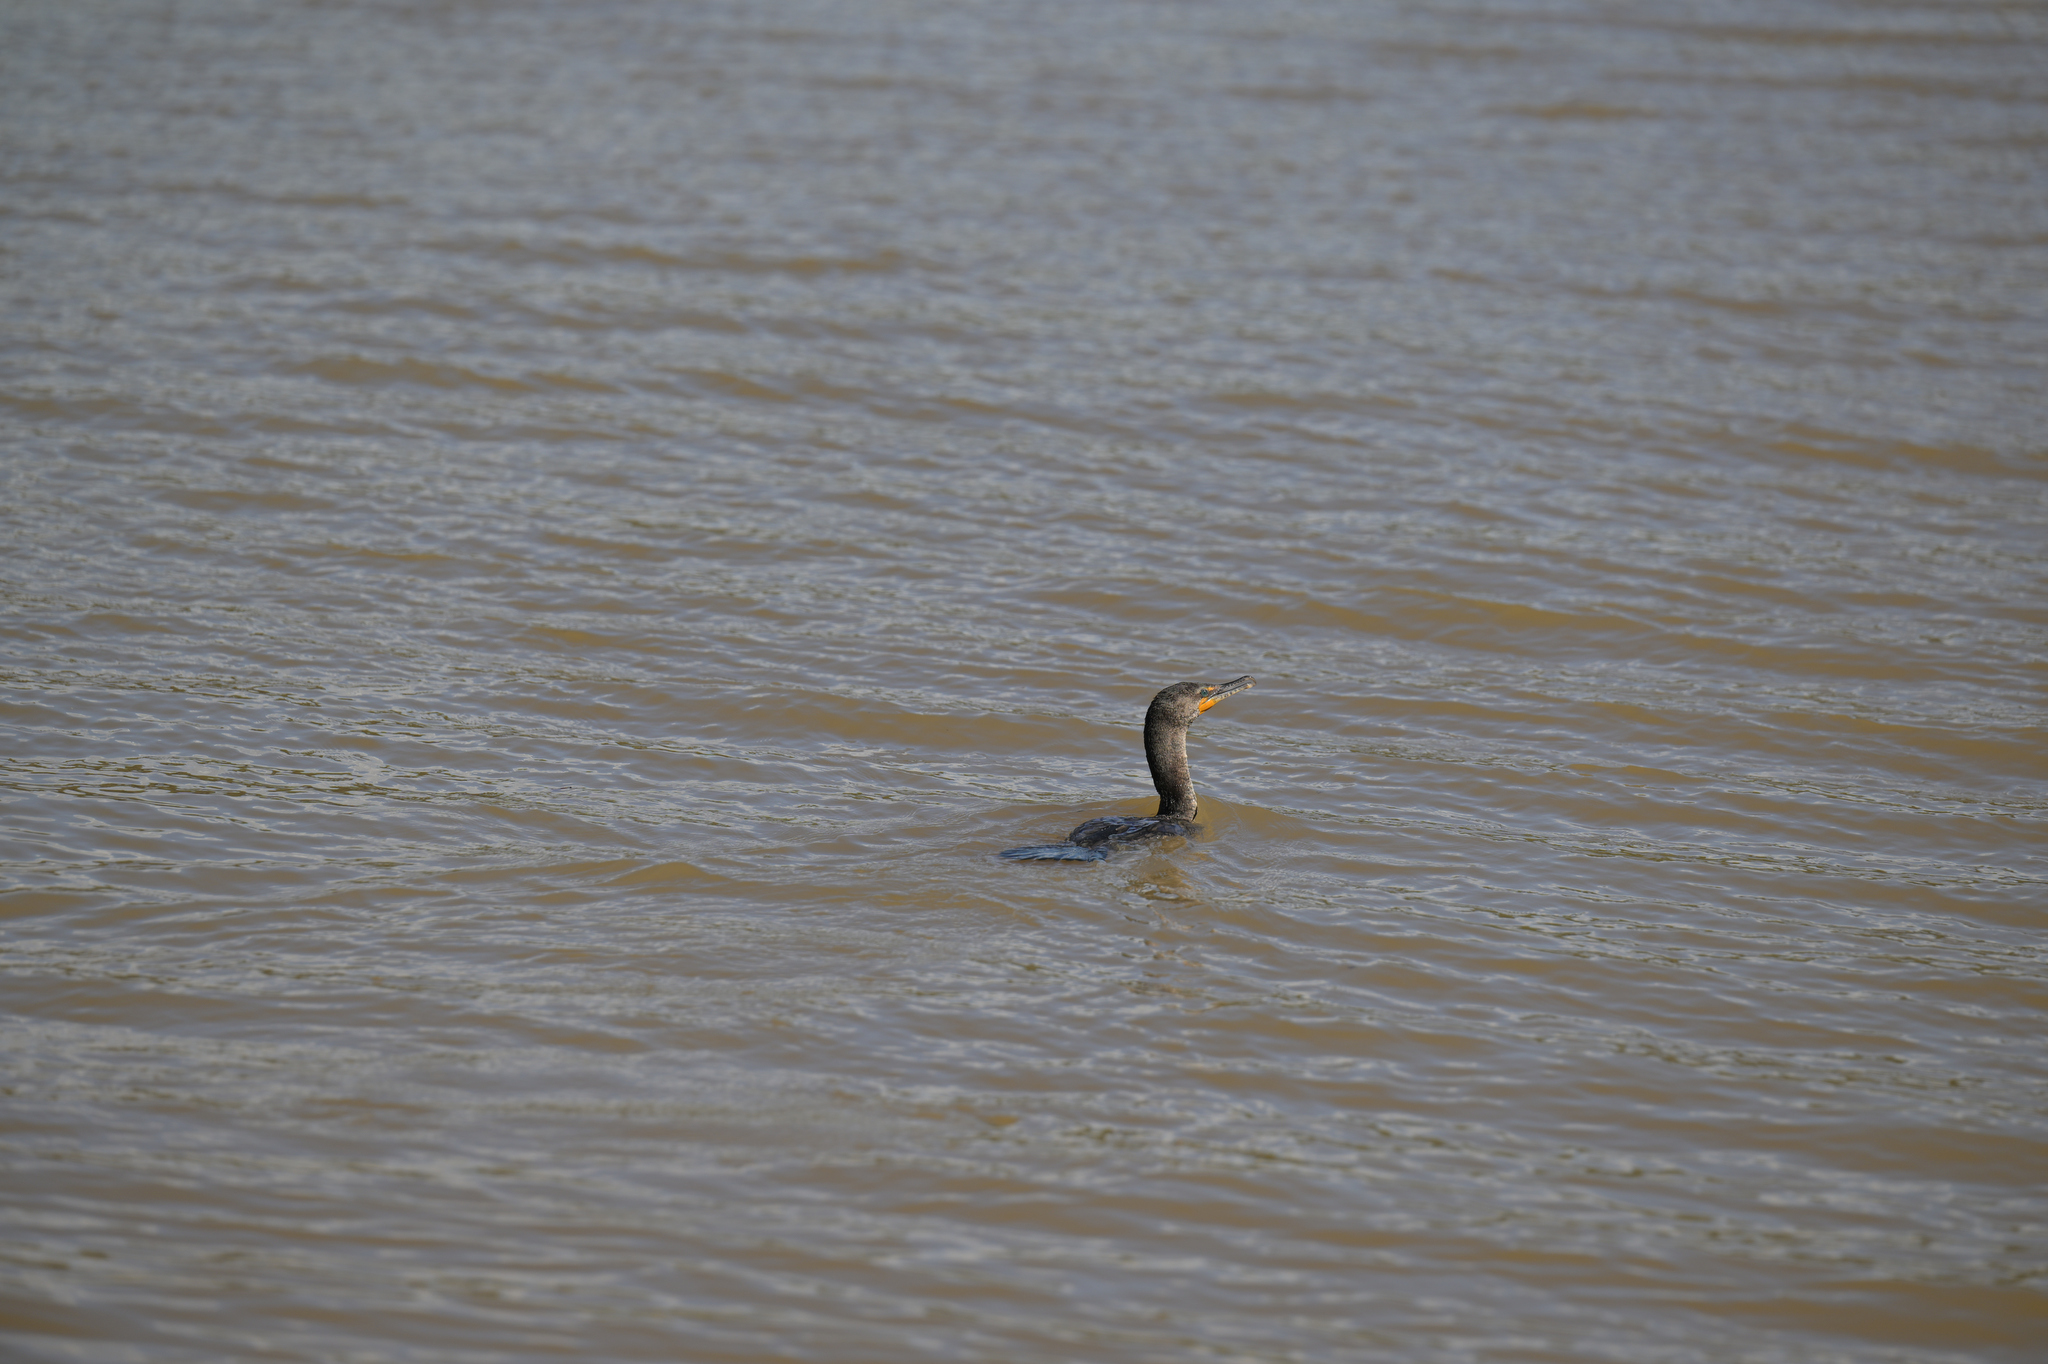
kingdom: Animalia
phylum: Chordata
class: Aves
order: Suliformes
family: Phalacrocoracidae
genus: Phalacrocorax
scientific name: Phalacrocorax auritus
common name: Double-crested cormorant
